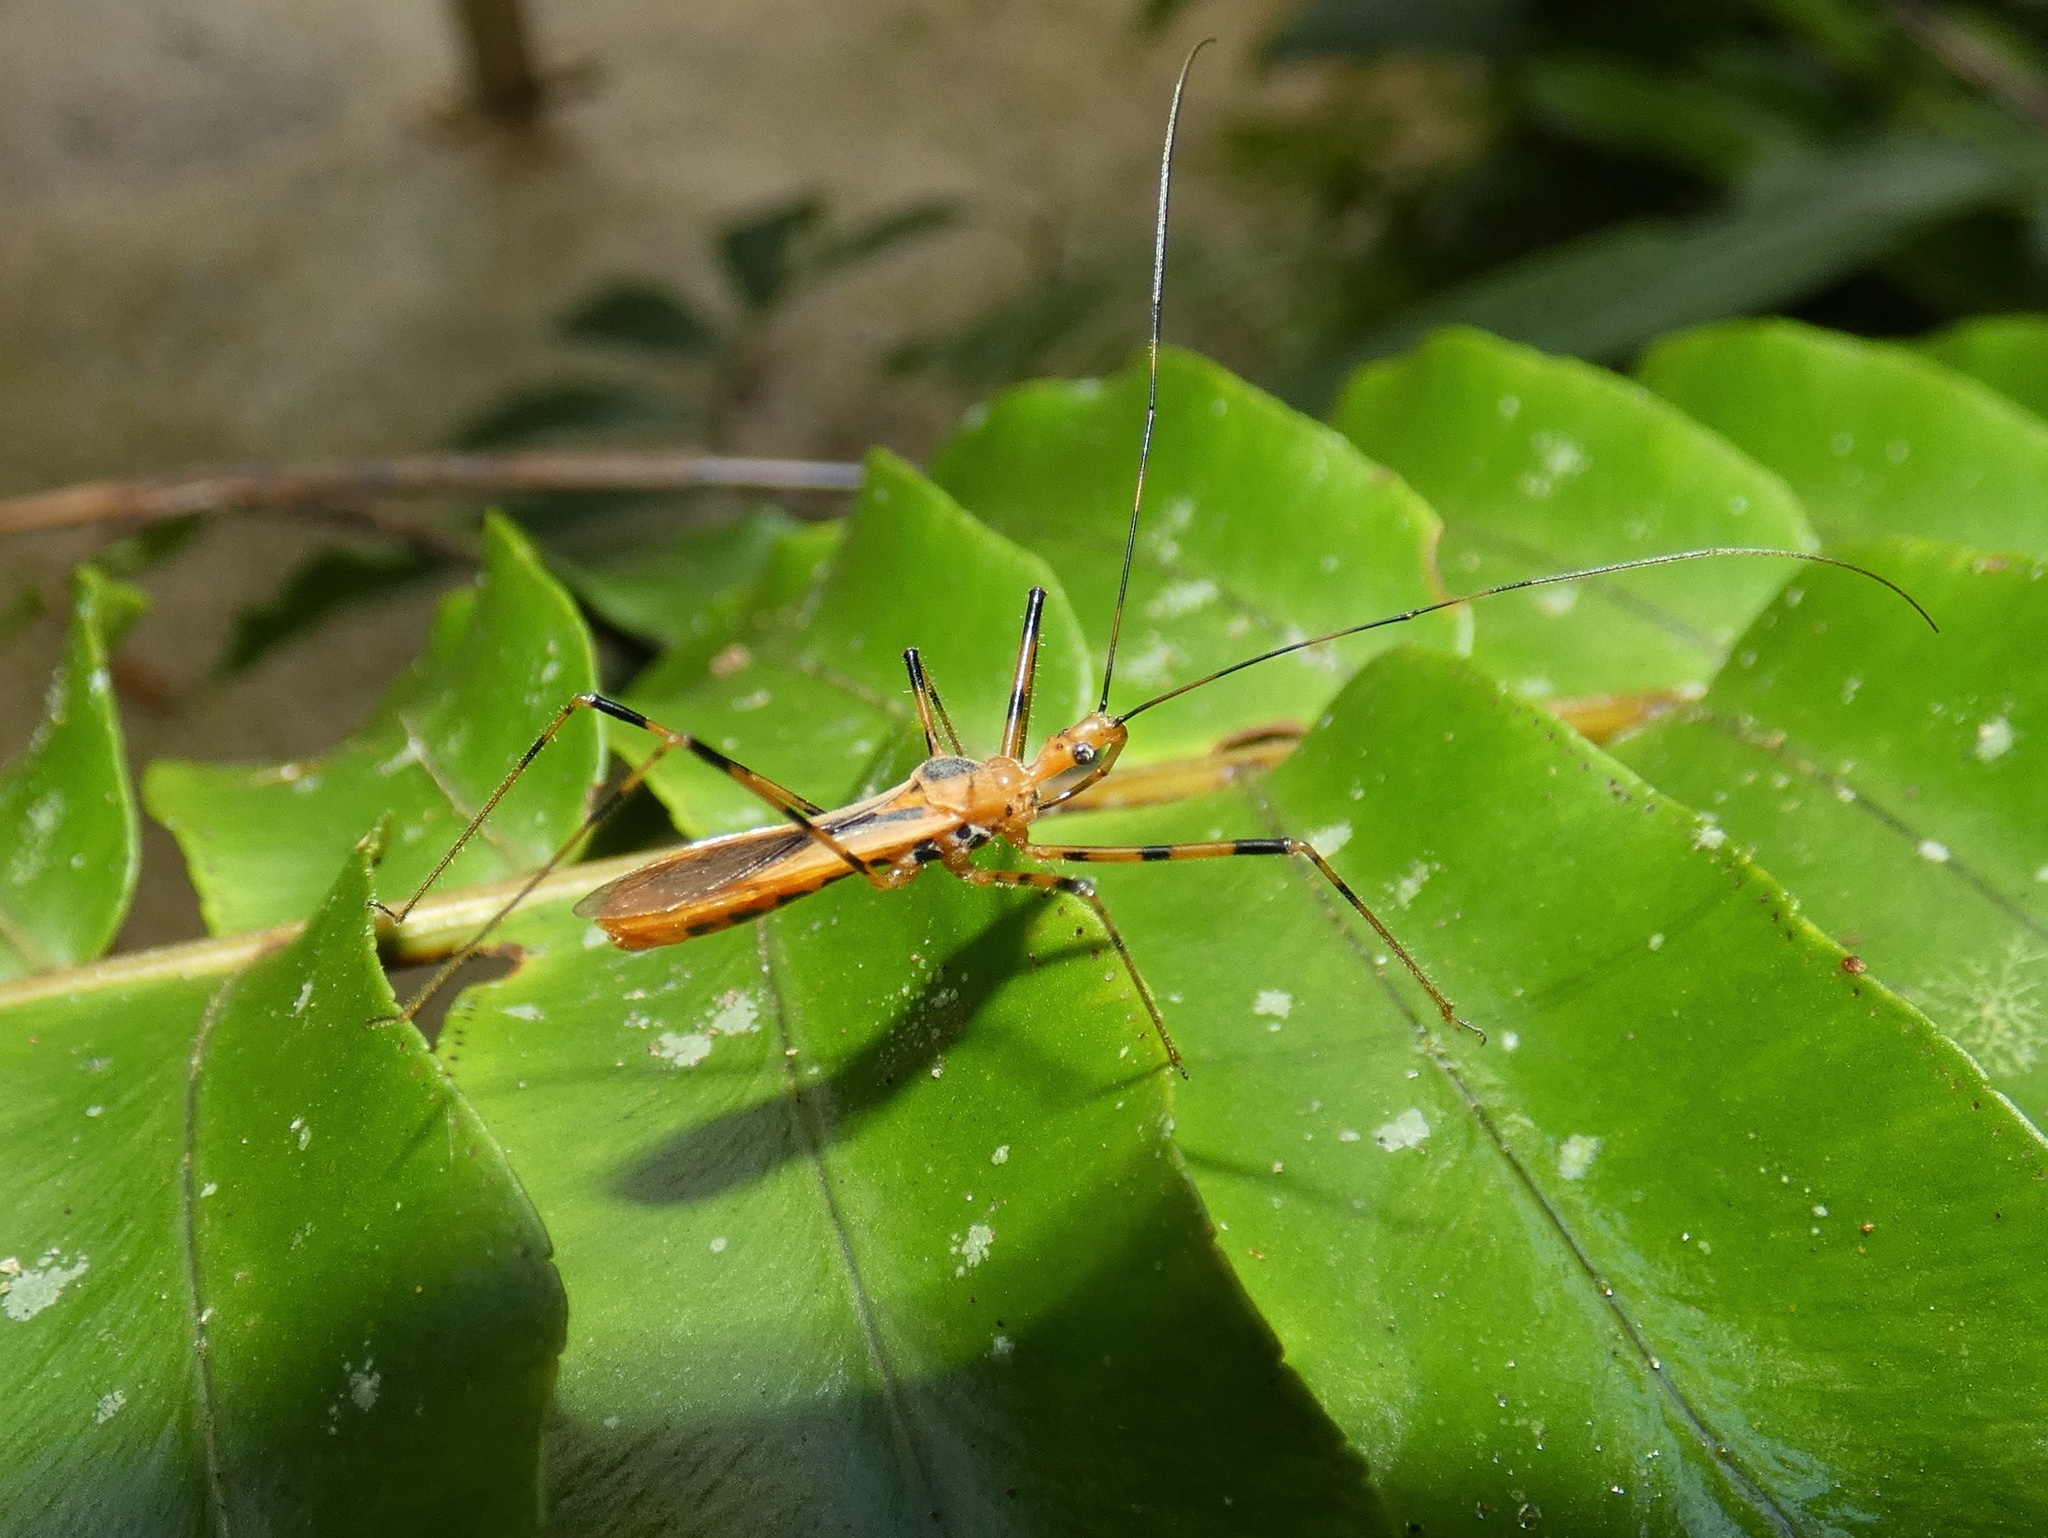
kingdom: Animalia
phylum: Arthropoda
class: Insecta
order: Hemiptera
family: Reduviidae
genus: Euagoras
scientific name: Euagoras dorycus
